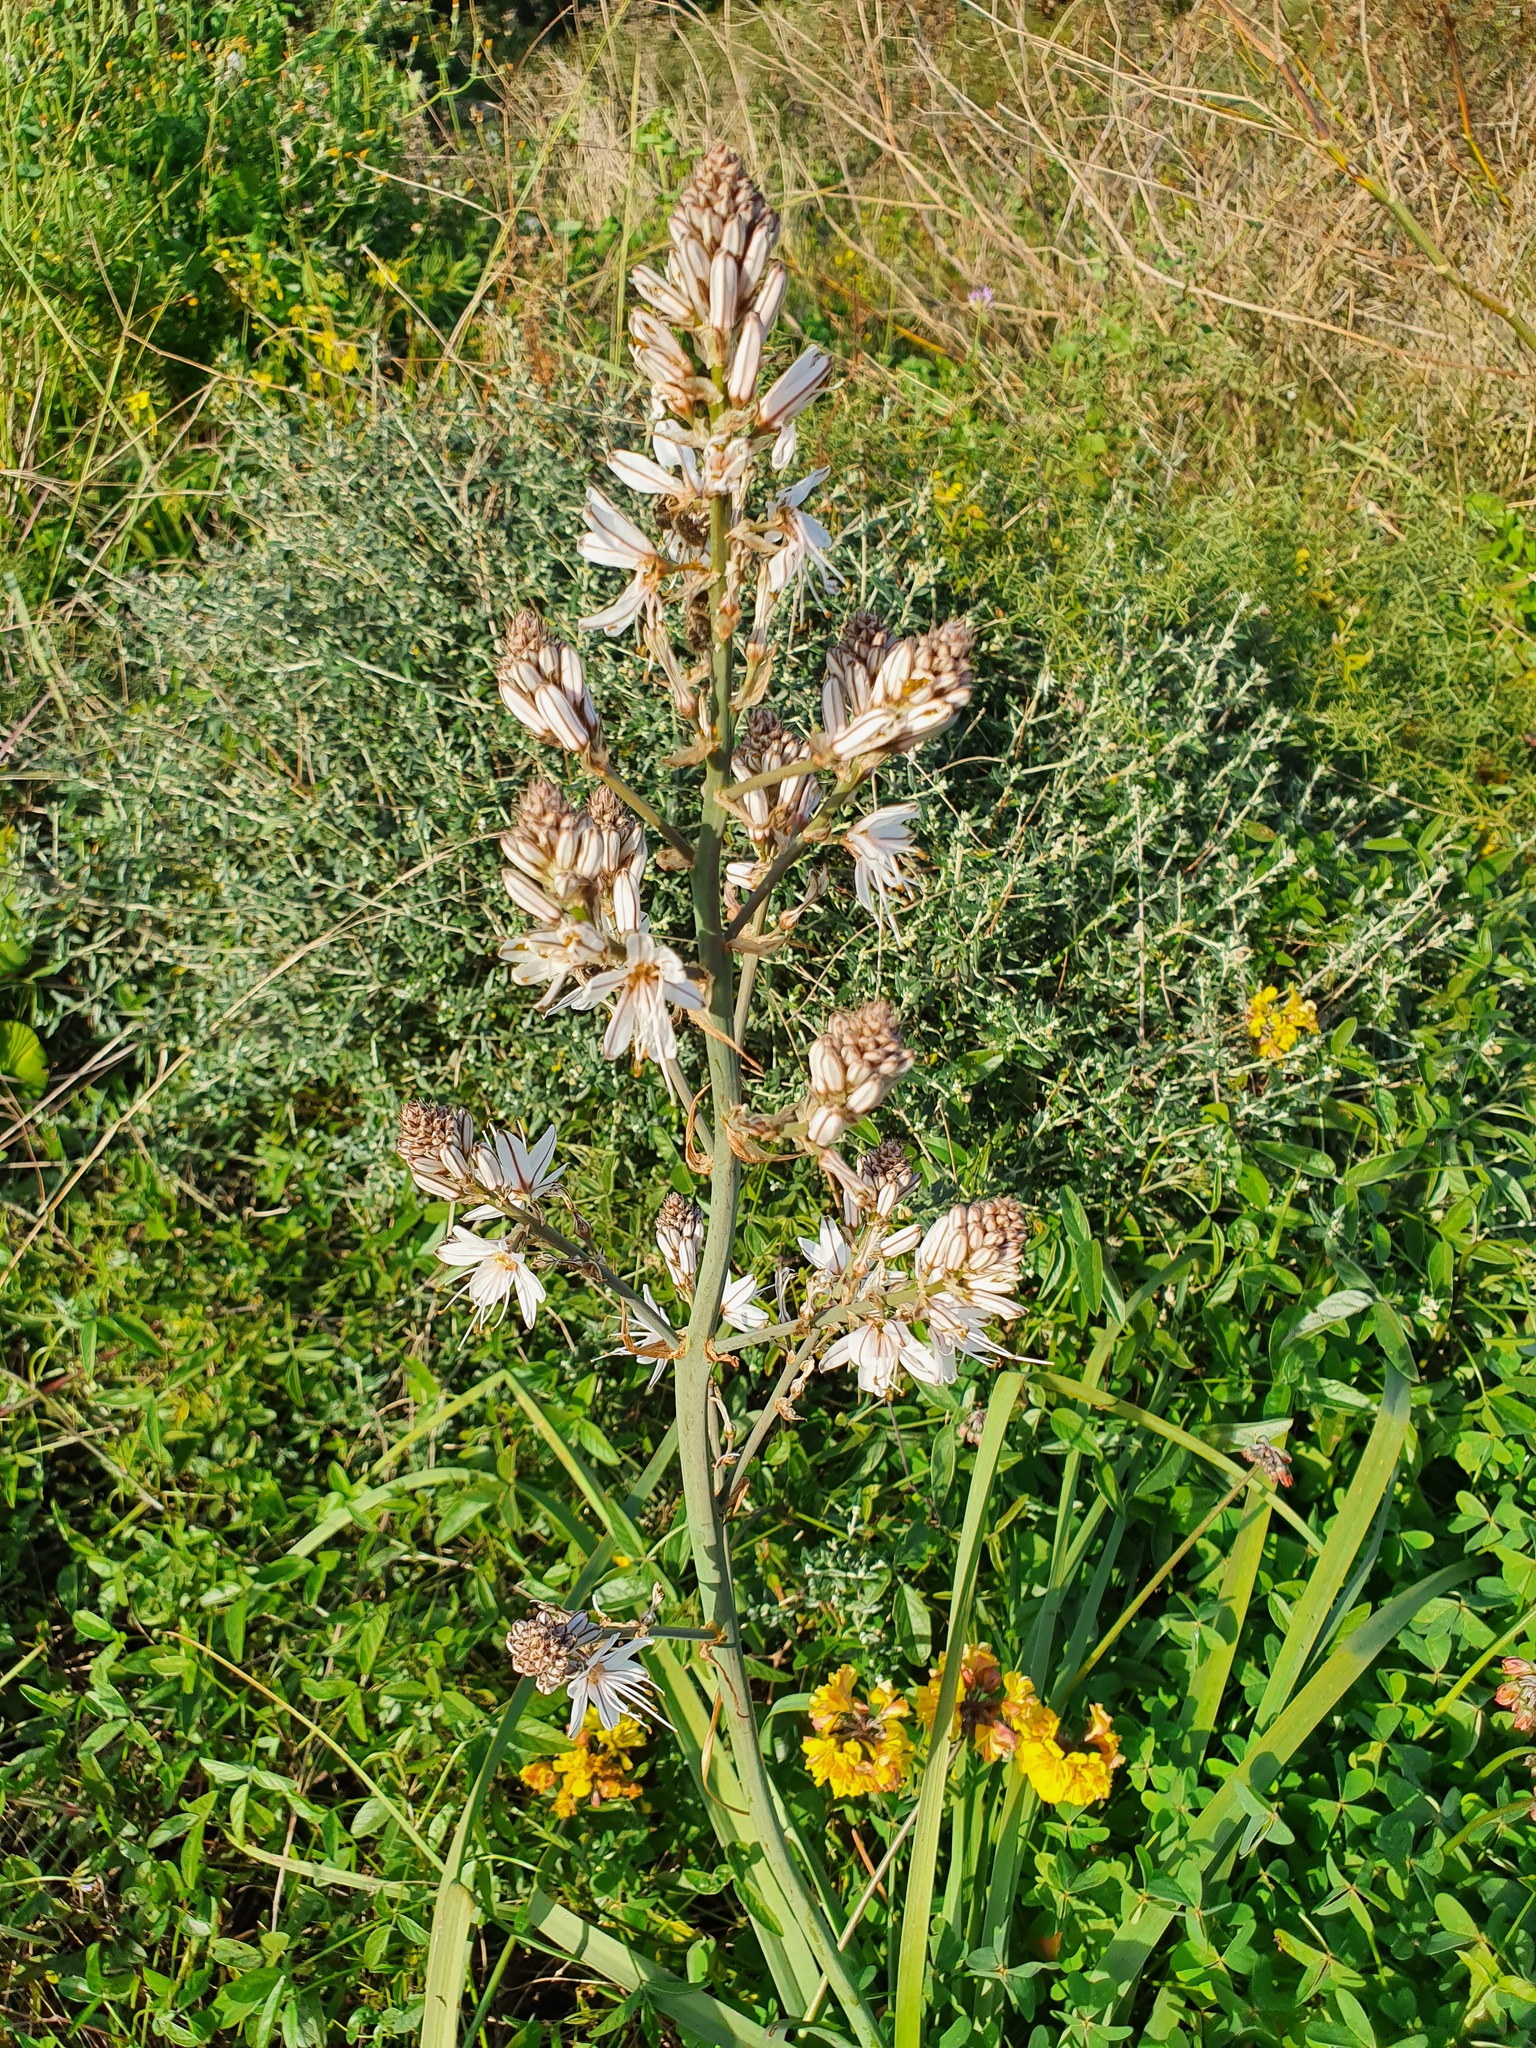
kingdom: Plantae
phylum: Tracheophyta
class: Liliopsida
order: Asparagales
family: Asphodelaceae
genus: Asphodelus
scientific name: Asphodelus ramosus
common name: Silverrod
